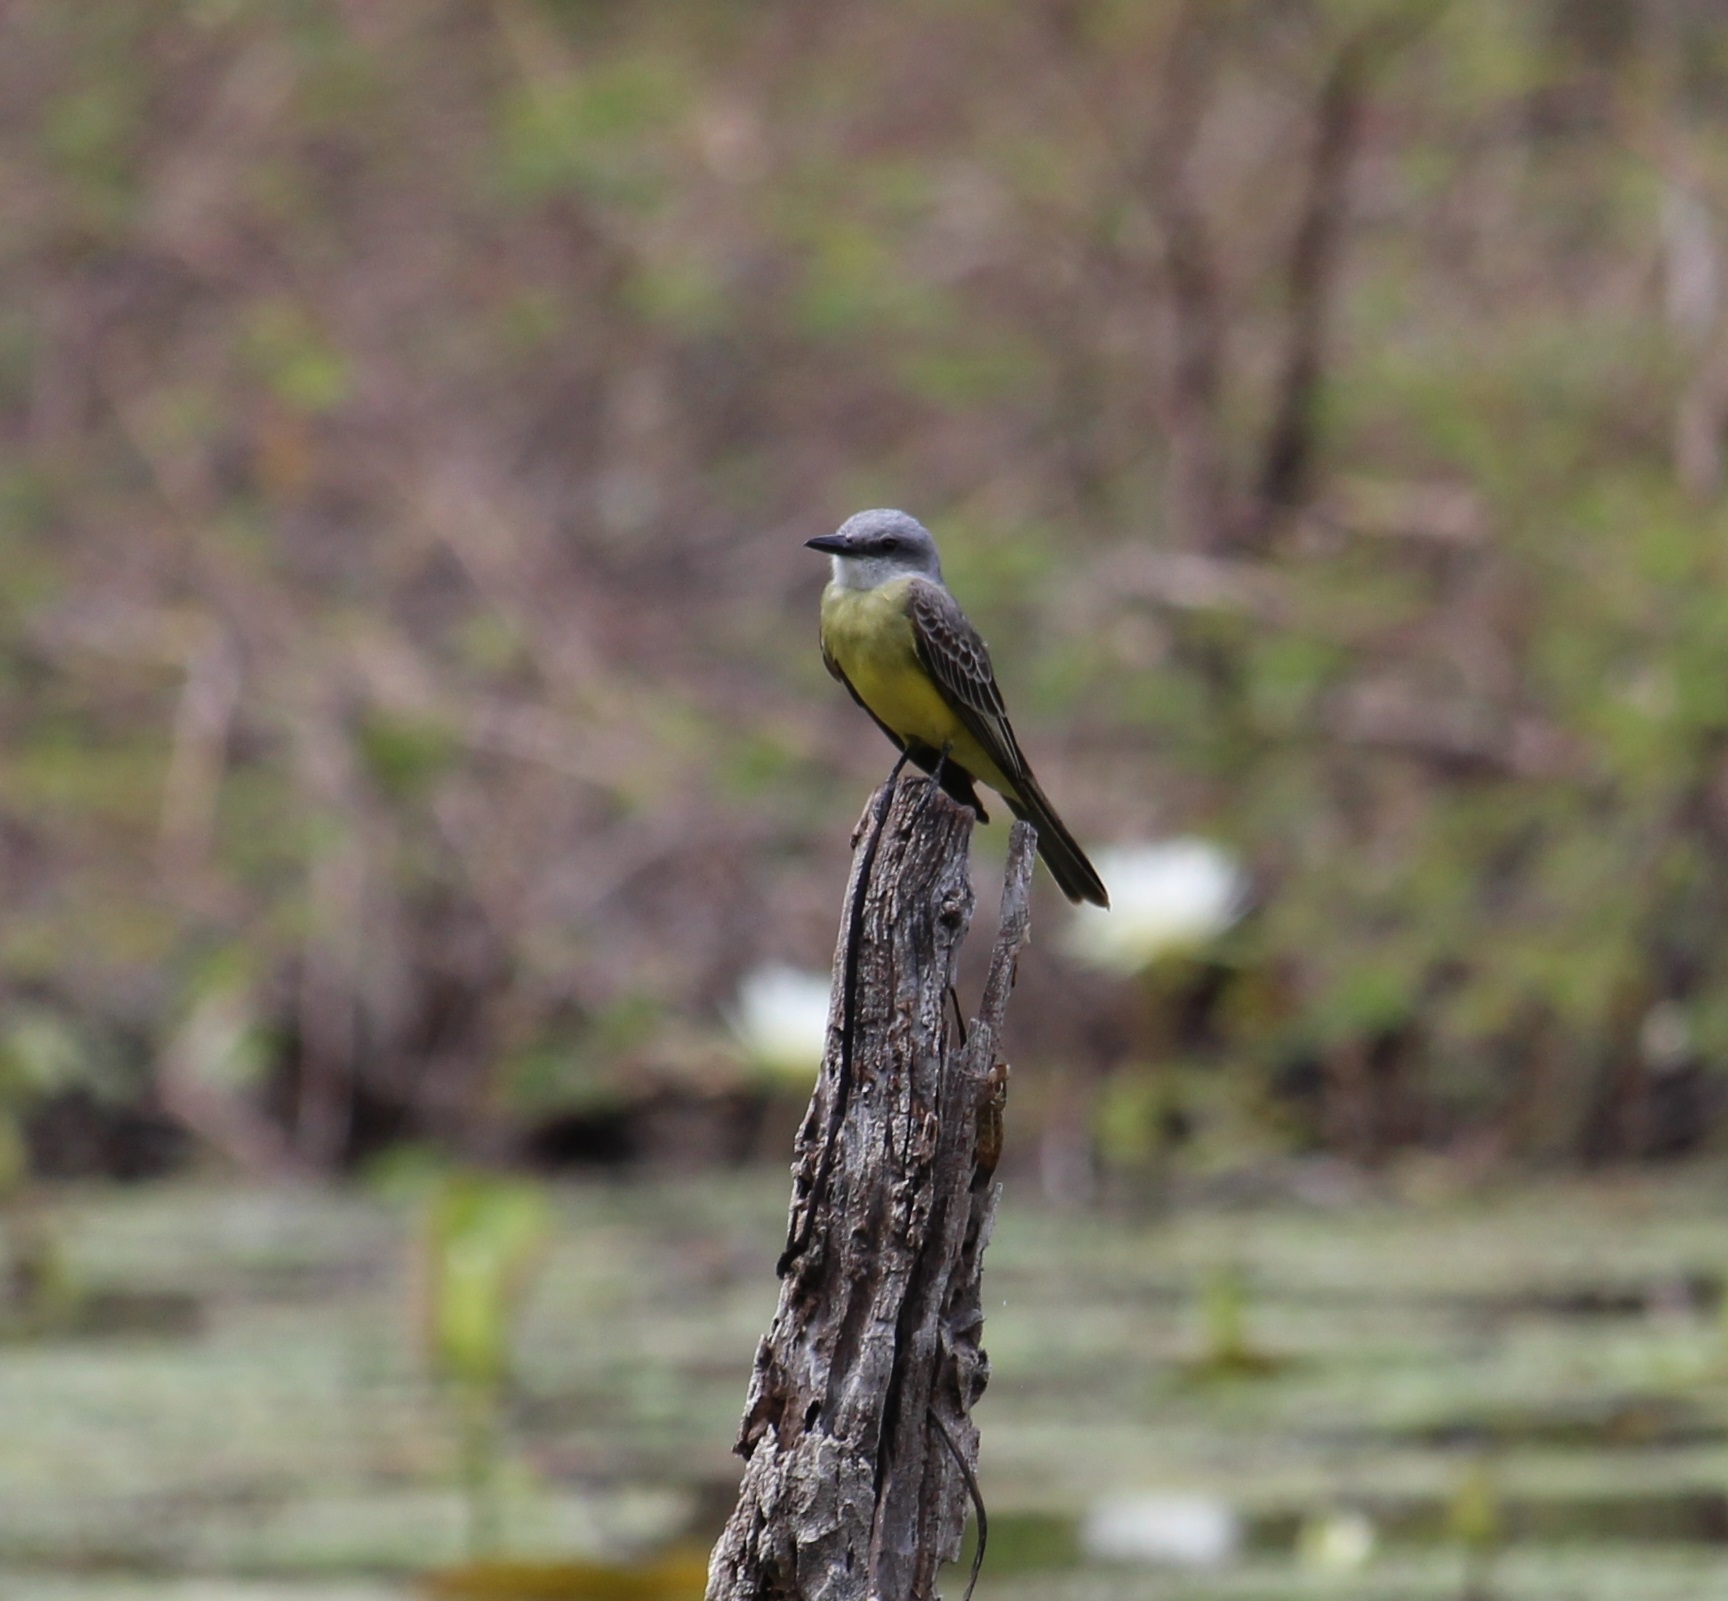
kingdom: Animalia
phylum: Chordata
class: Aves
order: Passeriformes
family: Tyrannidae
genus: Tyrannus
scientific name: Tyrannus melancholicus
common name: Tropical kingbird
